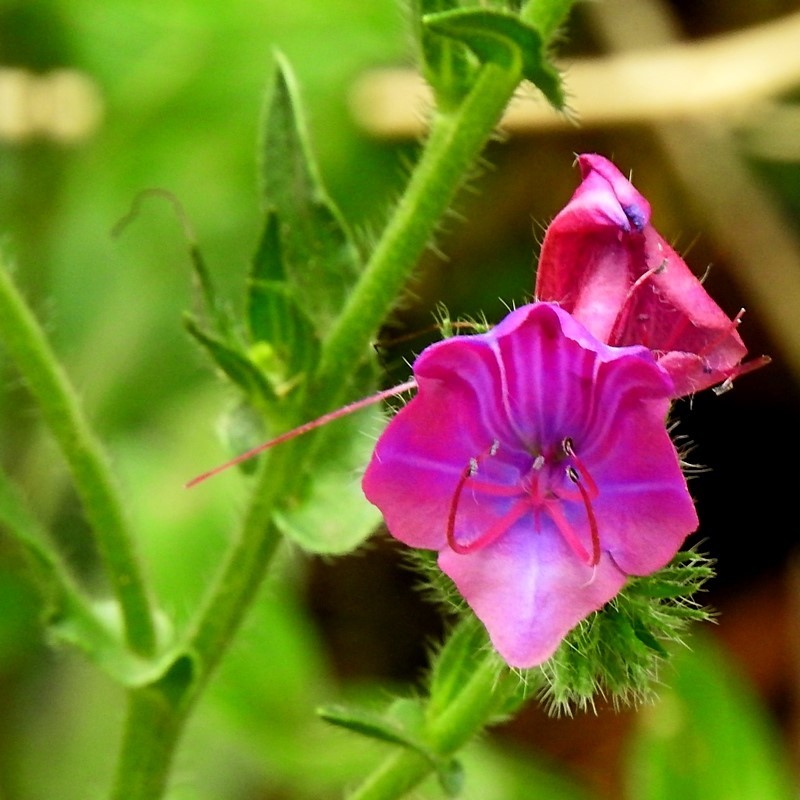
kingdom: Plantae
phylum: Tracheophyta
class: Magnoliopsida
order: Boraginales
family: Boraginaceae
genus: Echium
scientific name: Echium plantagineum
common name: Purple viper's-bugloss
